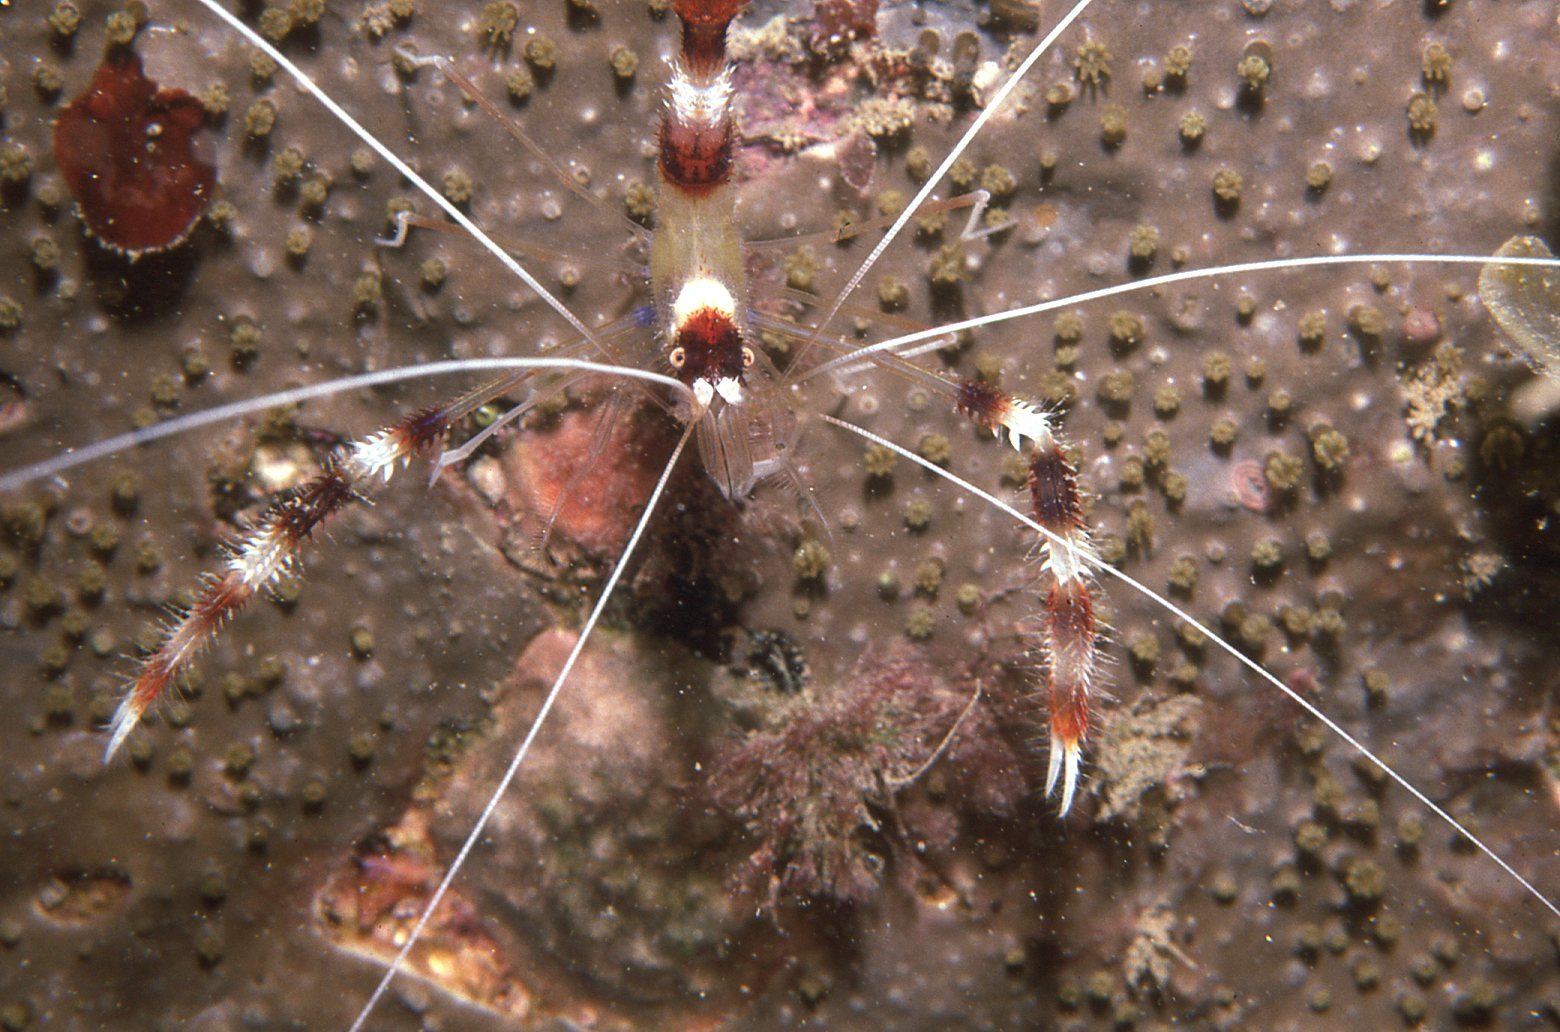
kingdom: Animalia
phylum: Arthropoda
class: Malacostraca
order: Decapoda
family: Stenopodidae
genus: Stenopus
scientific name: Stenopus hispidus
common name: Banded coral shrimp
